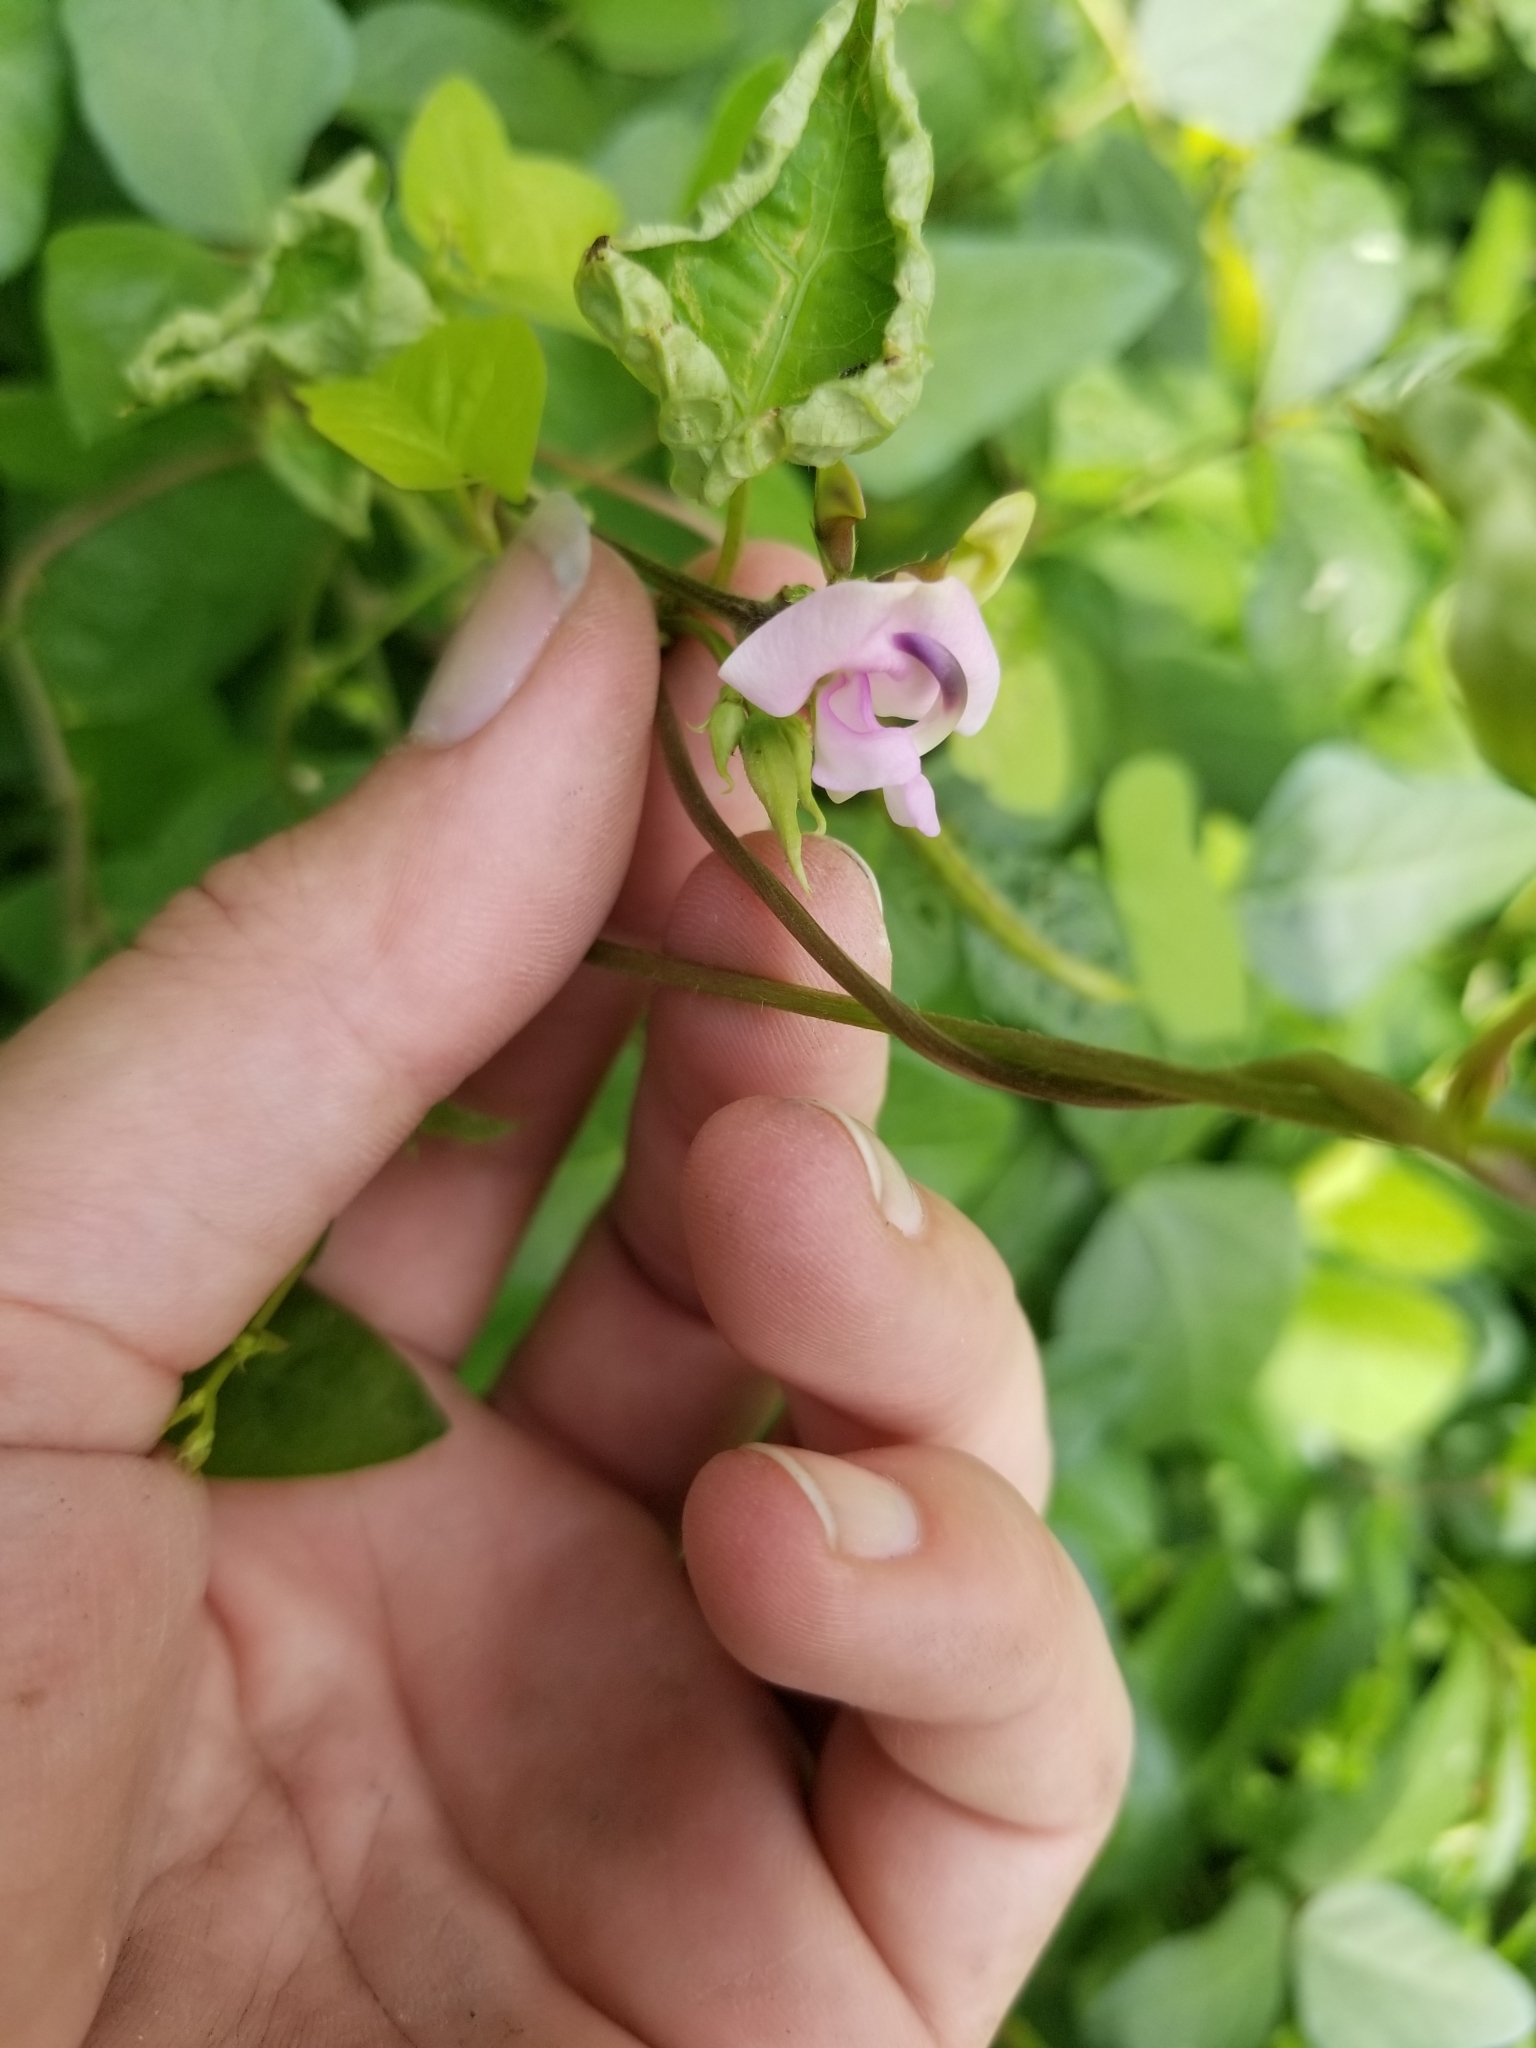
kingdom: Plantae
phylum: Tracheophyta
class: Magnoliopsida
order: Fabales
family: Fabaceae
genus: Strophostyles
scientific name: Strophostyles helvola
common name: Trailing wild bean
